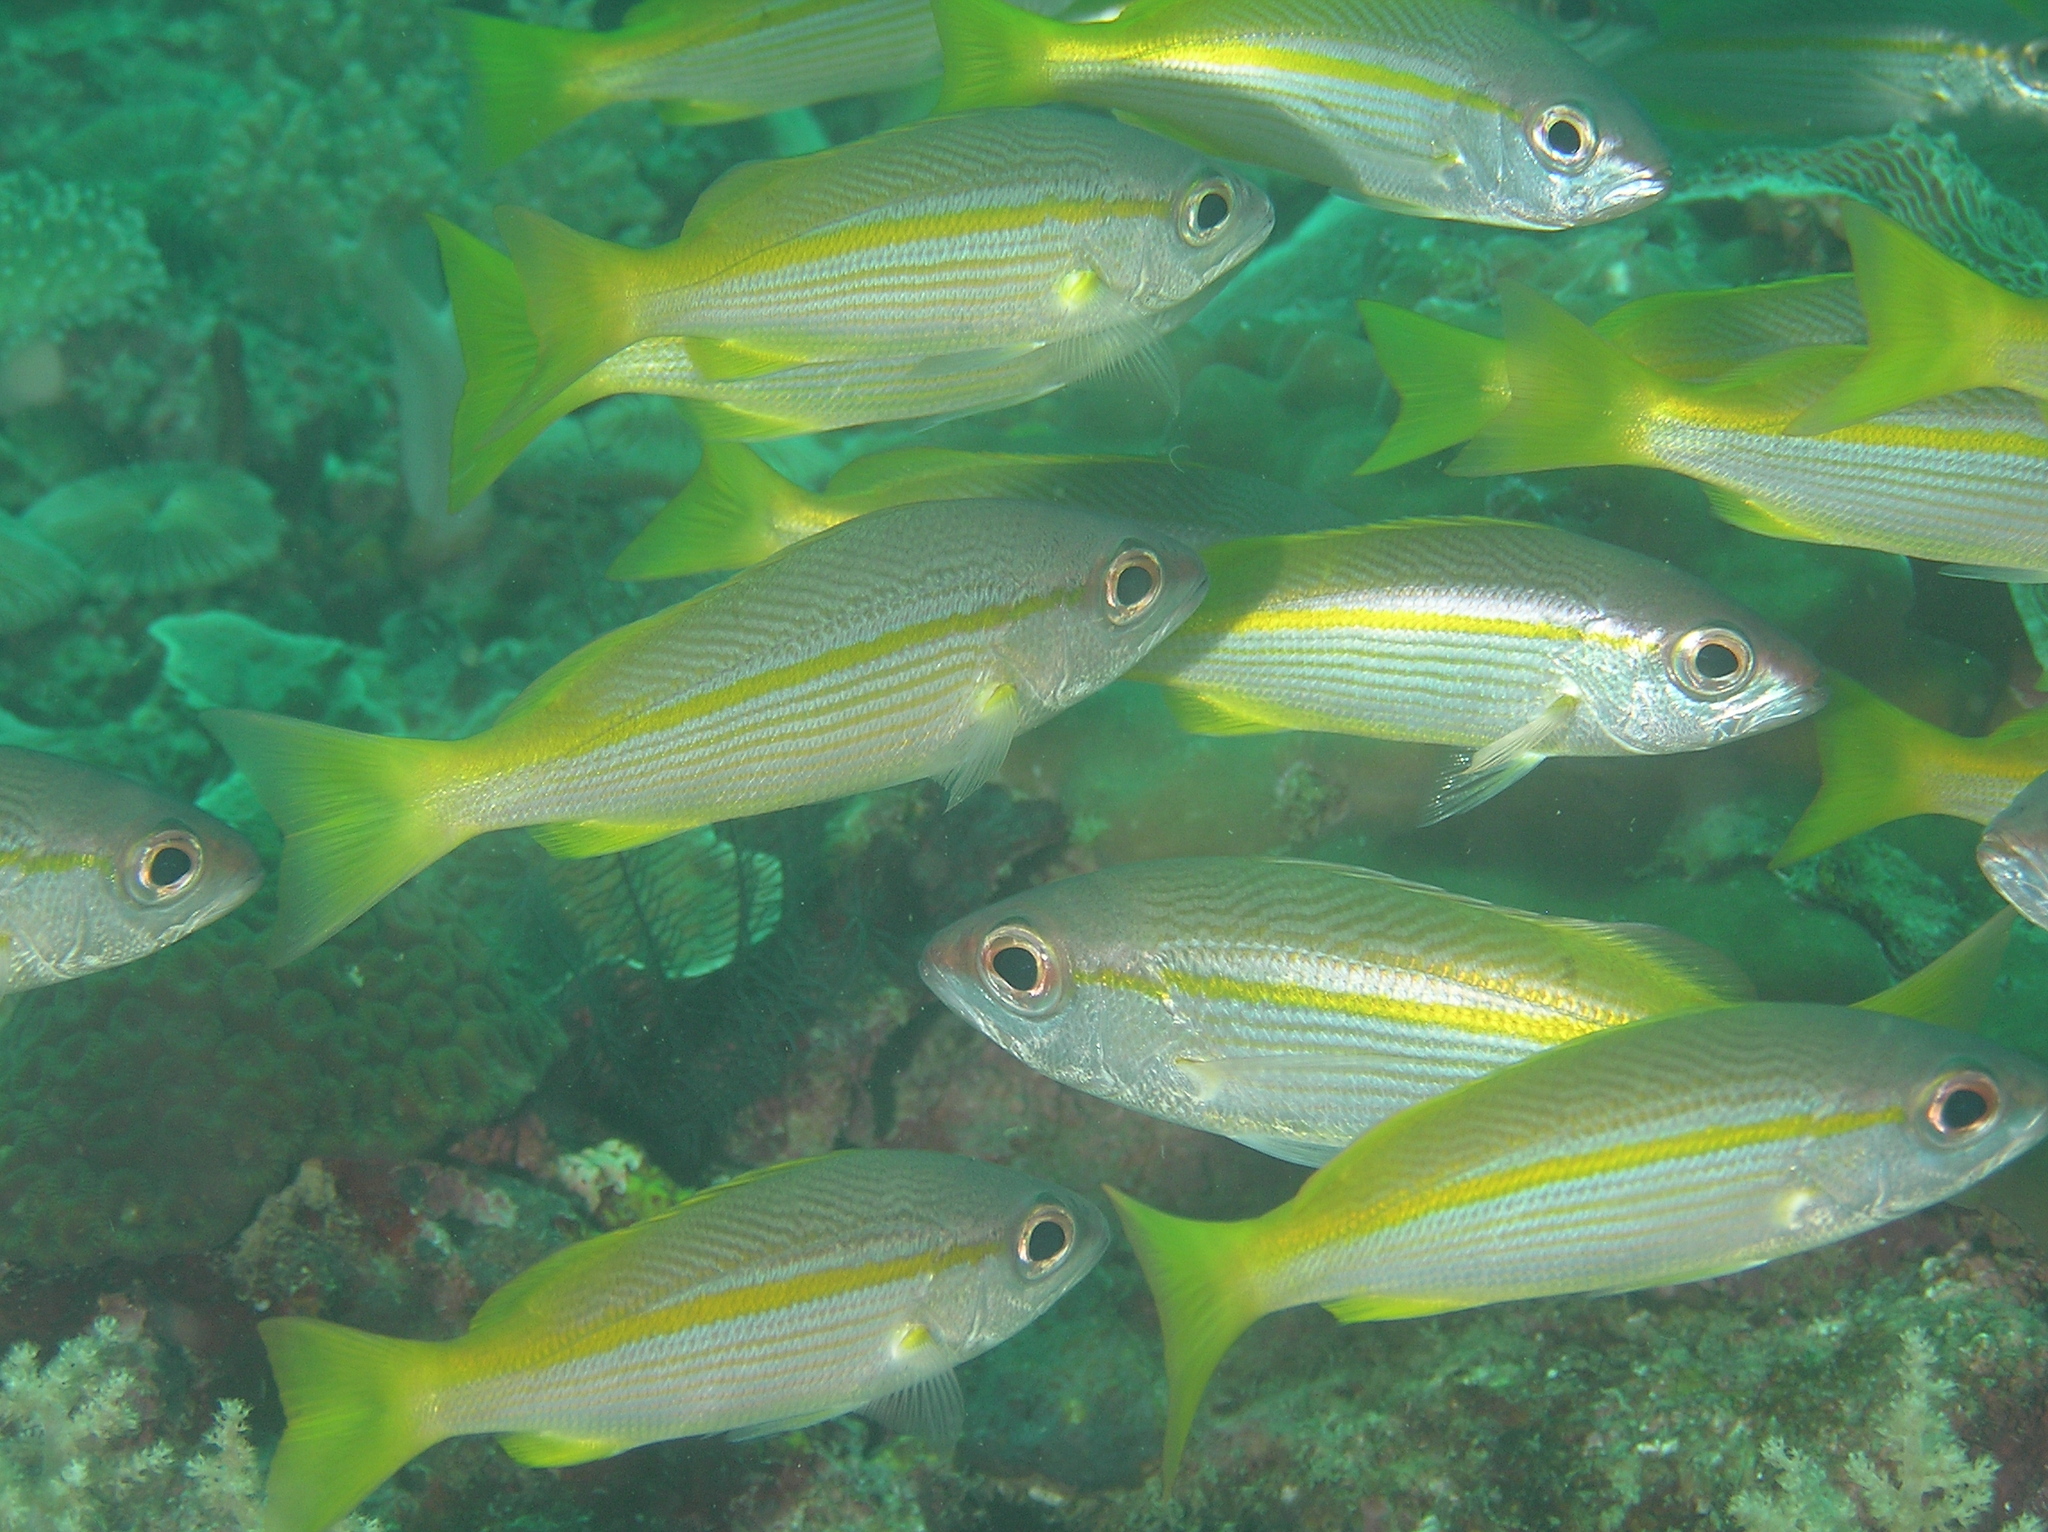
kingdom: Animalia
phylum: Chordata
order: Perciformes
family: Lutjanidae
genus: Lutjanus
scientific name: Lutjanus lutjanus
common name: Bigeye snapper
